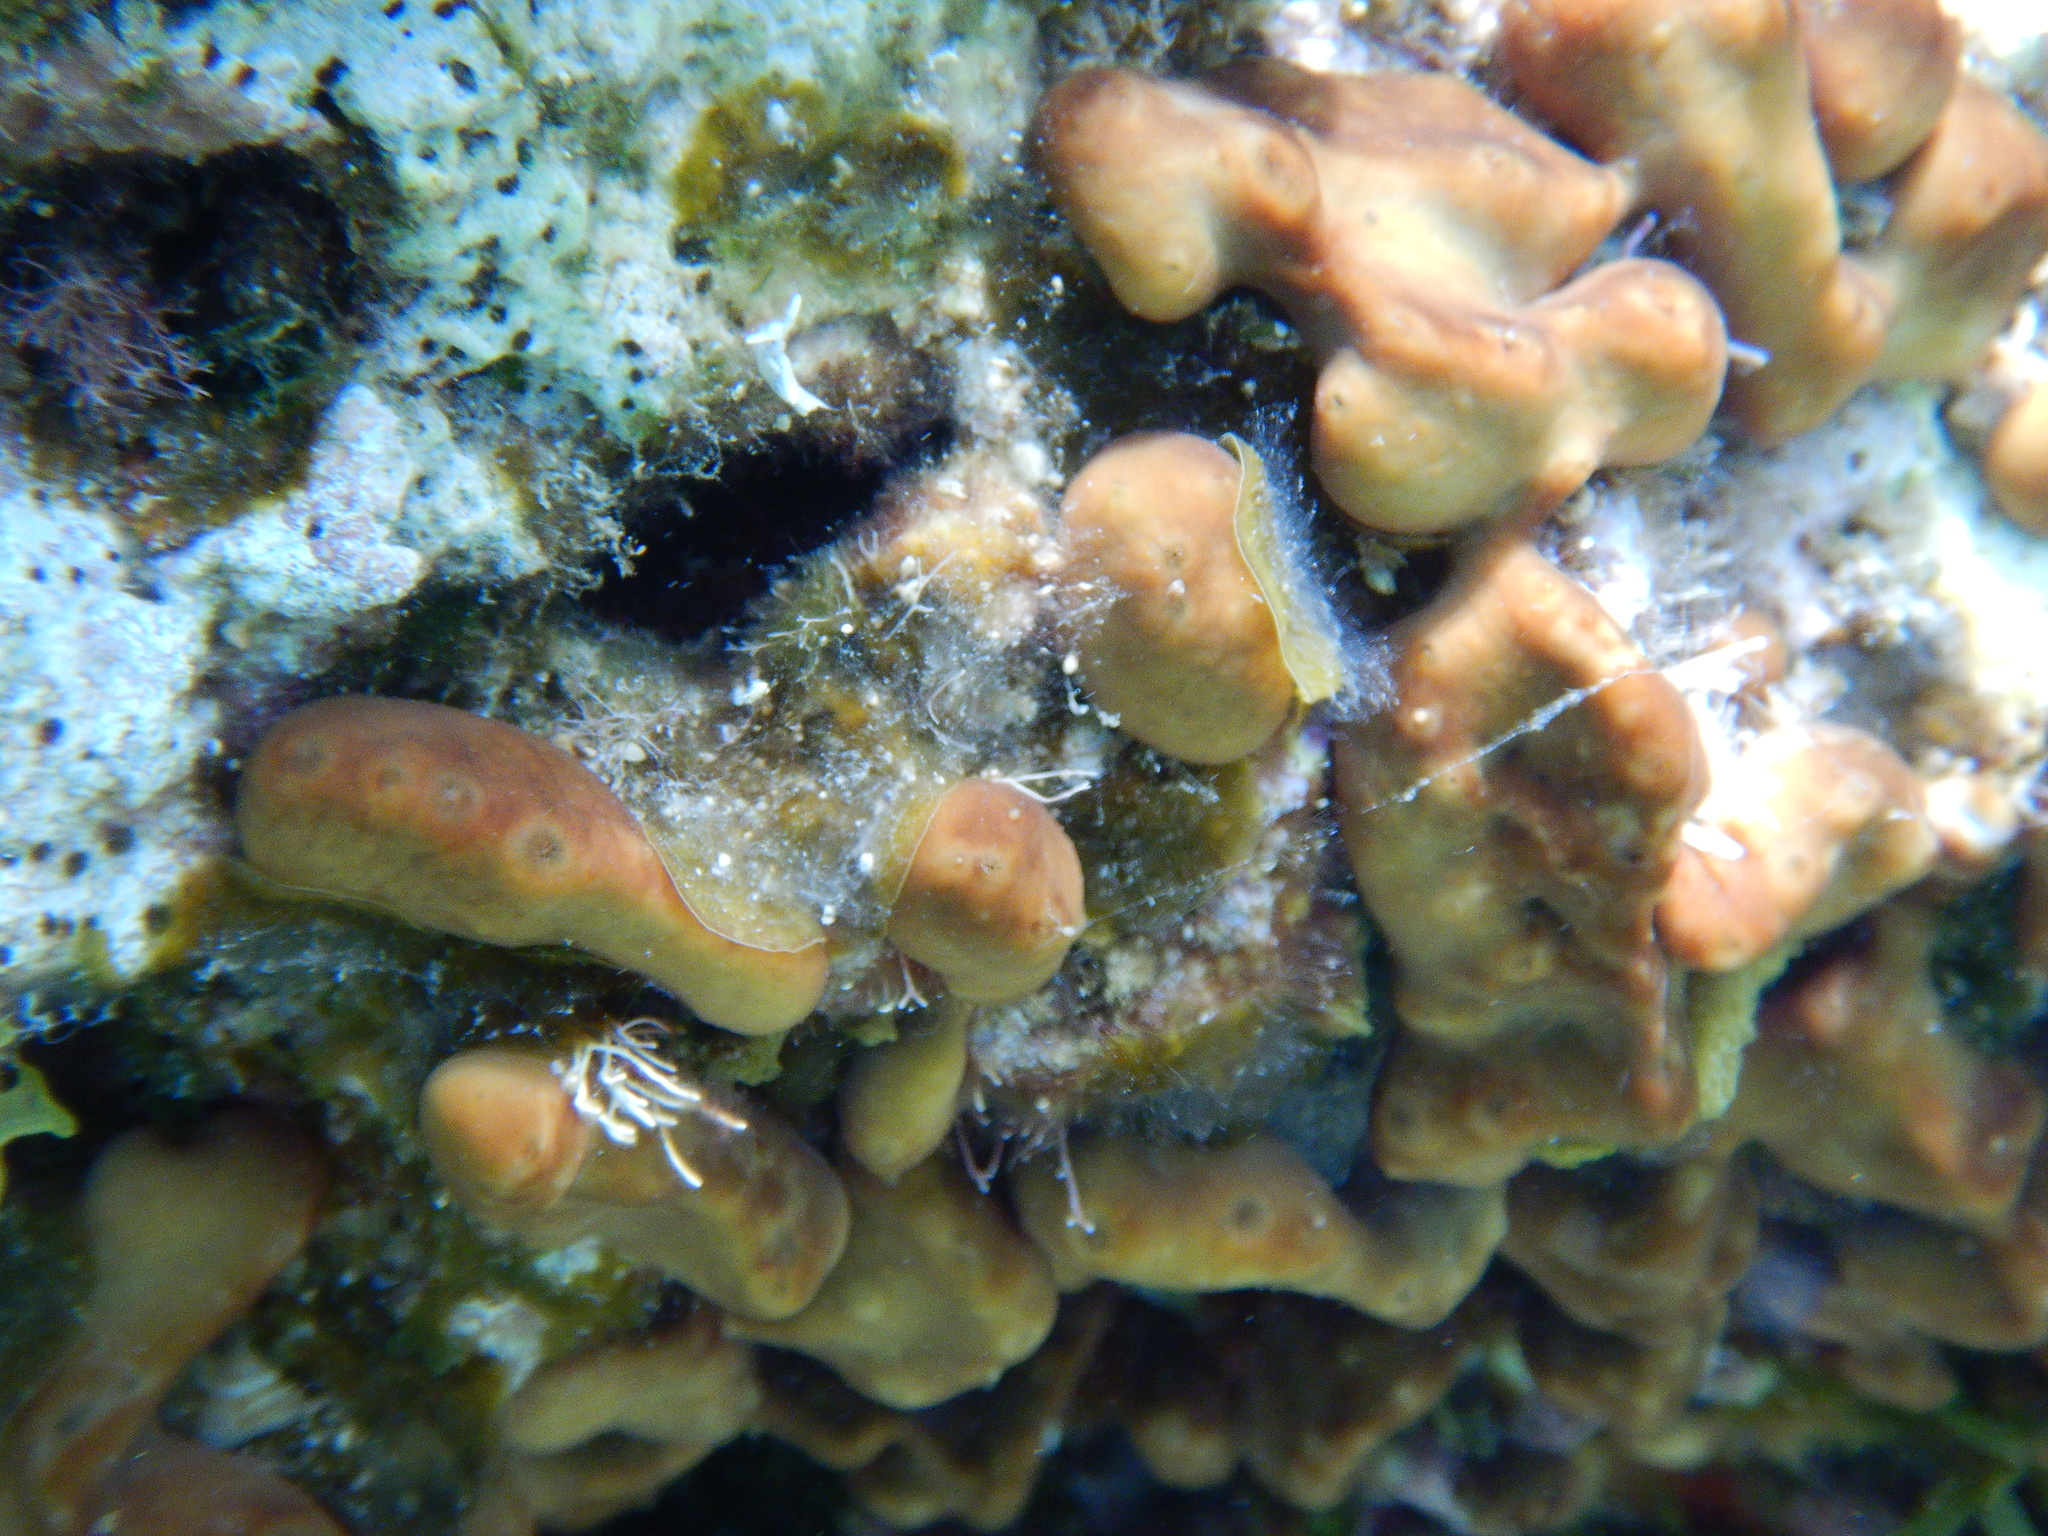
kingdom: Animalia
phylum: Porifera
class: Demospongiae
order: Chondrillida
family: Chondrillidae
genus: Chondrilla
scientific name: Chondrilla nucula
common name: Chicken liver sponge
